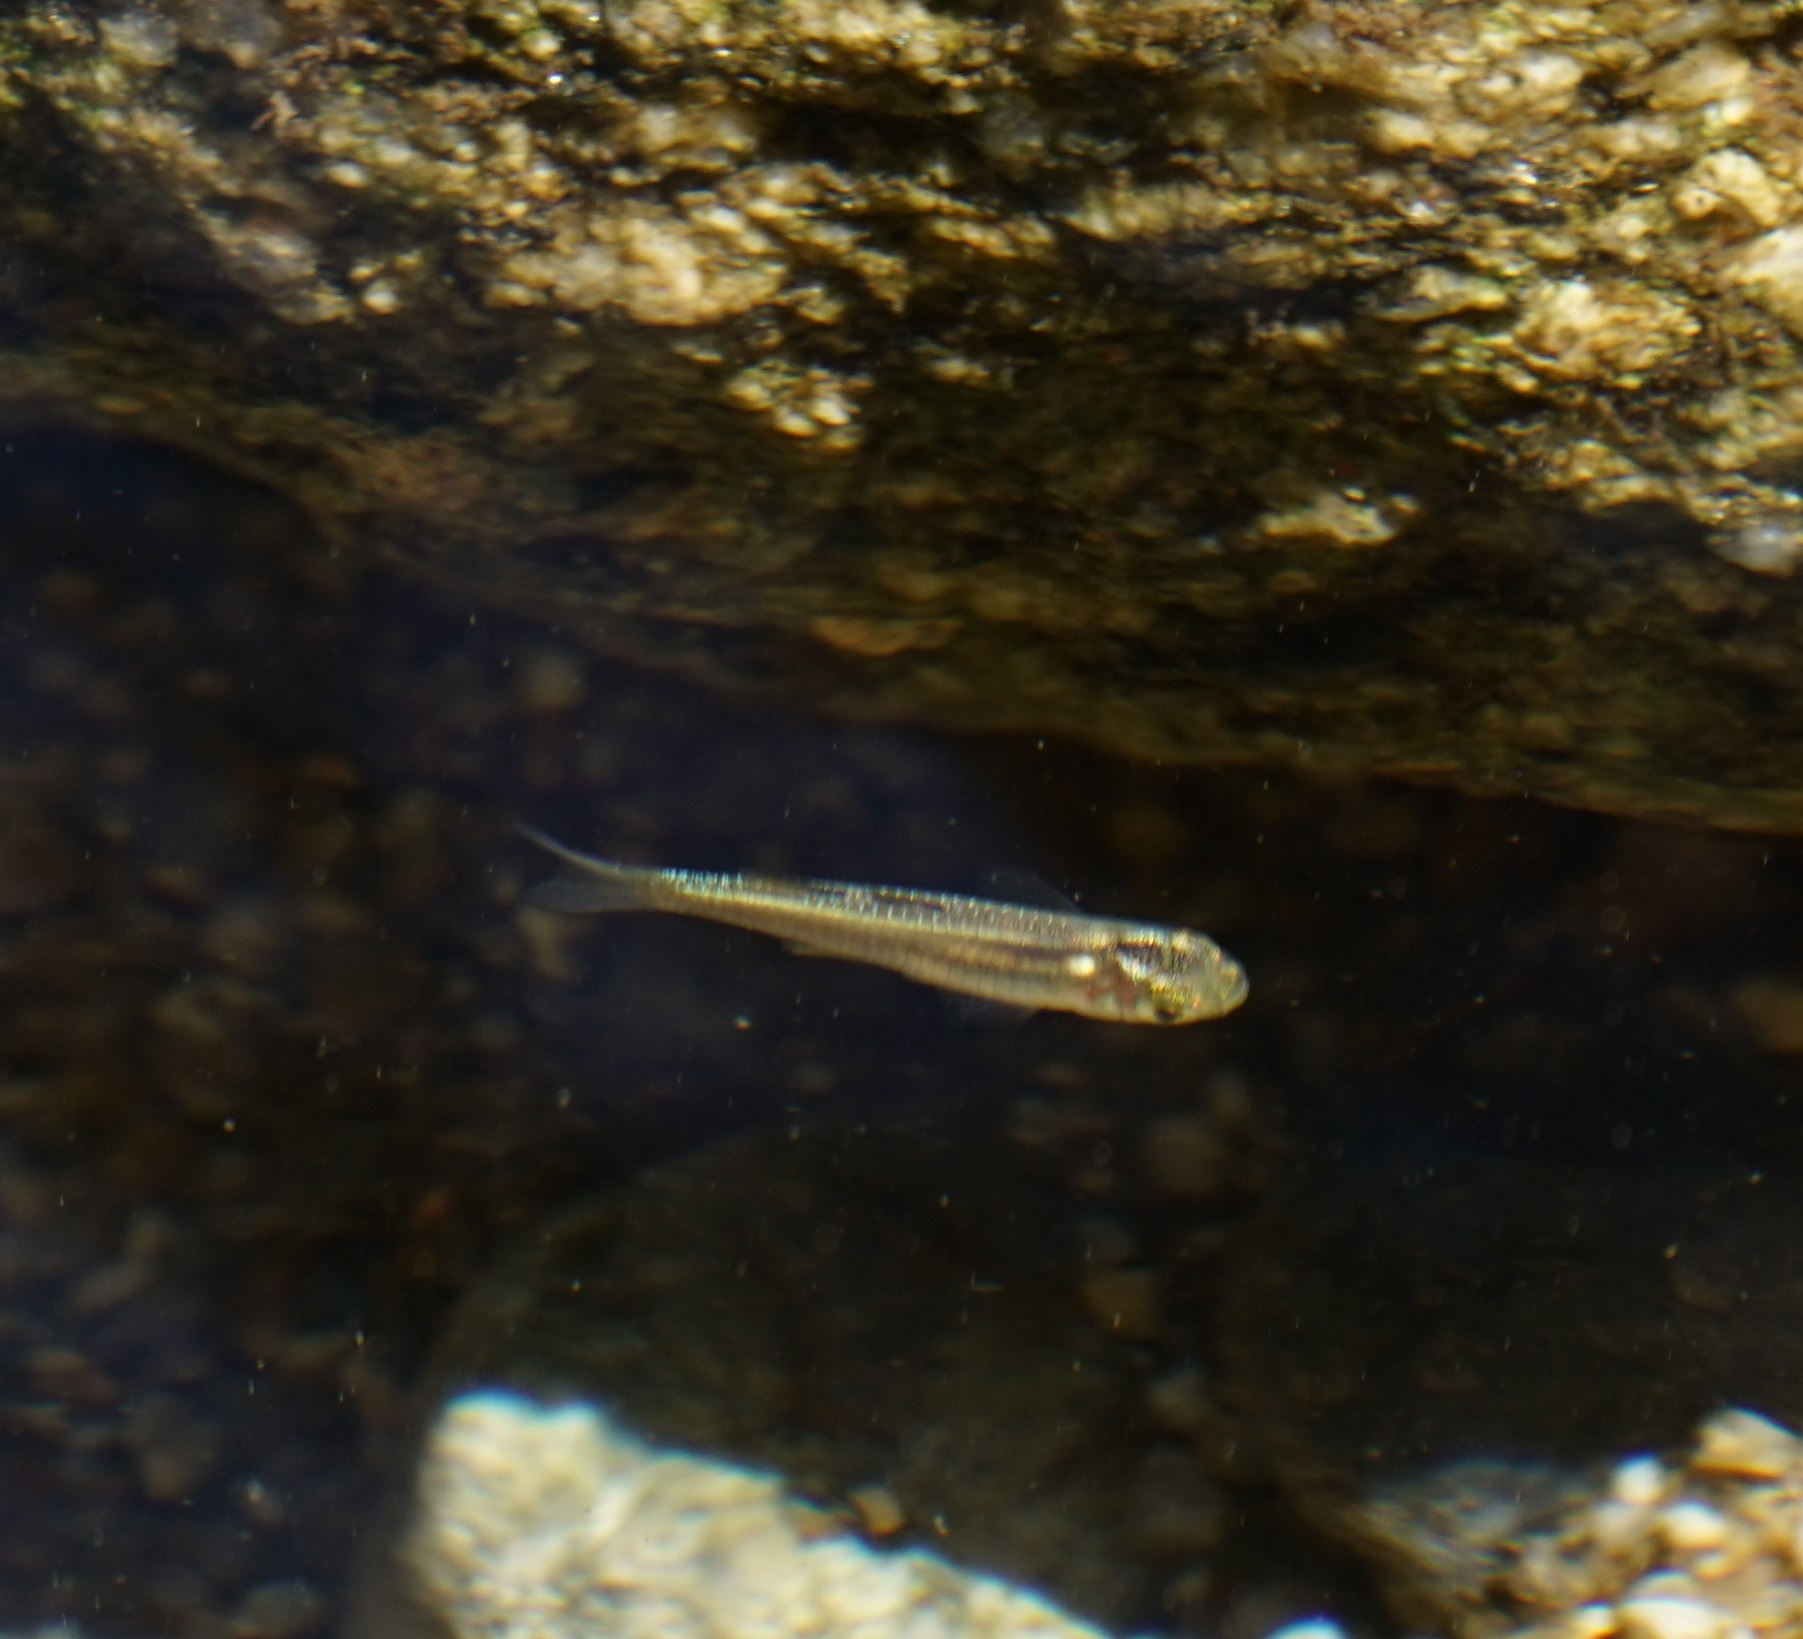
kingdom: Animalia
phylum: Chordata
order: Atheriniformes
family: Pseudomugilidae
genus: Pseudomugil
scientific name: Pseudomugil signifer
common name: Blue eye
